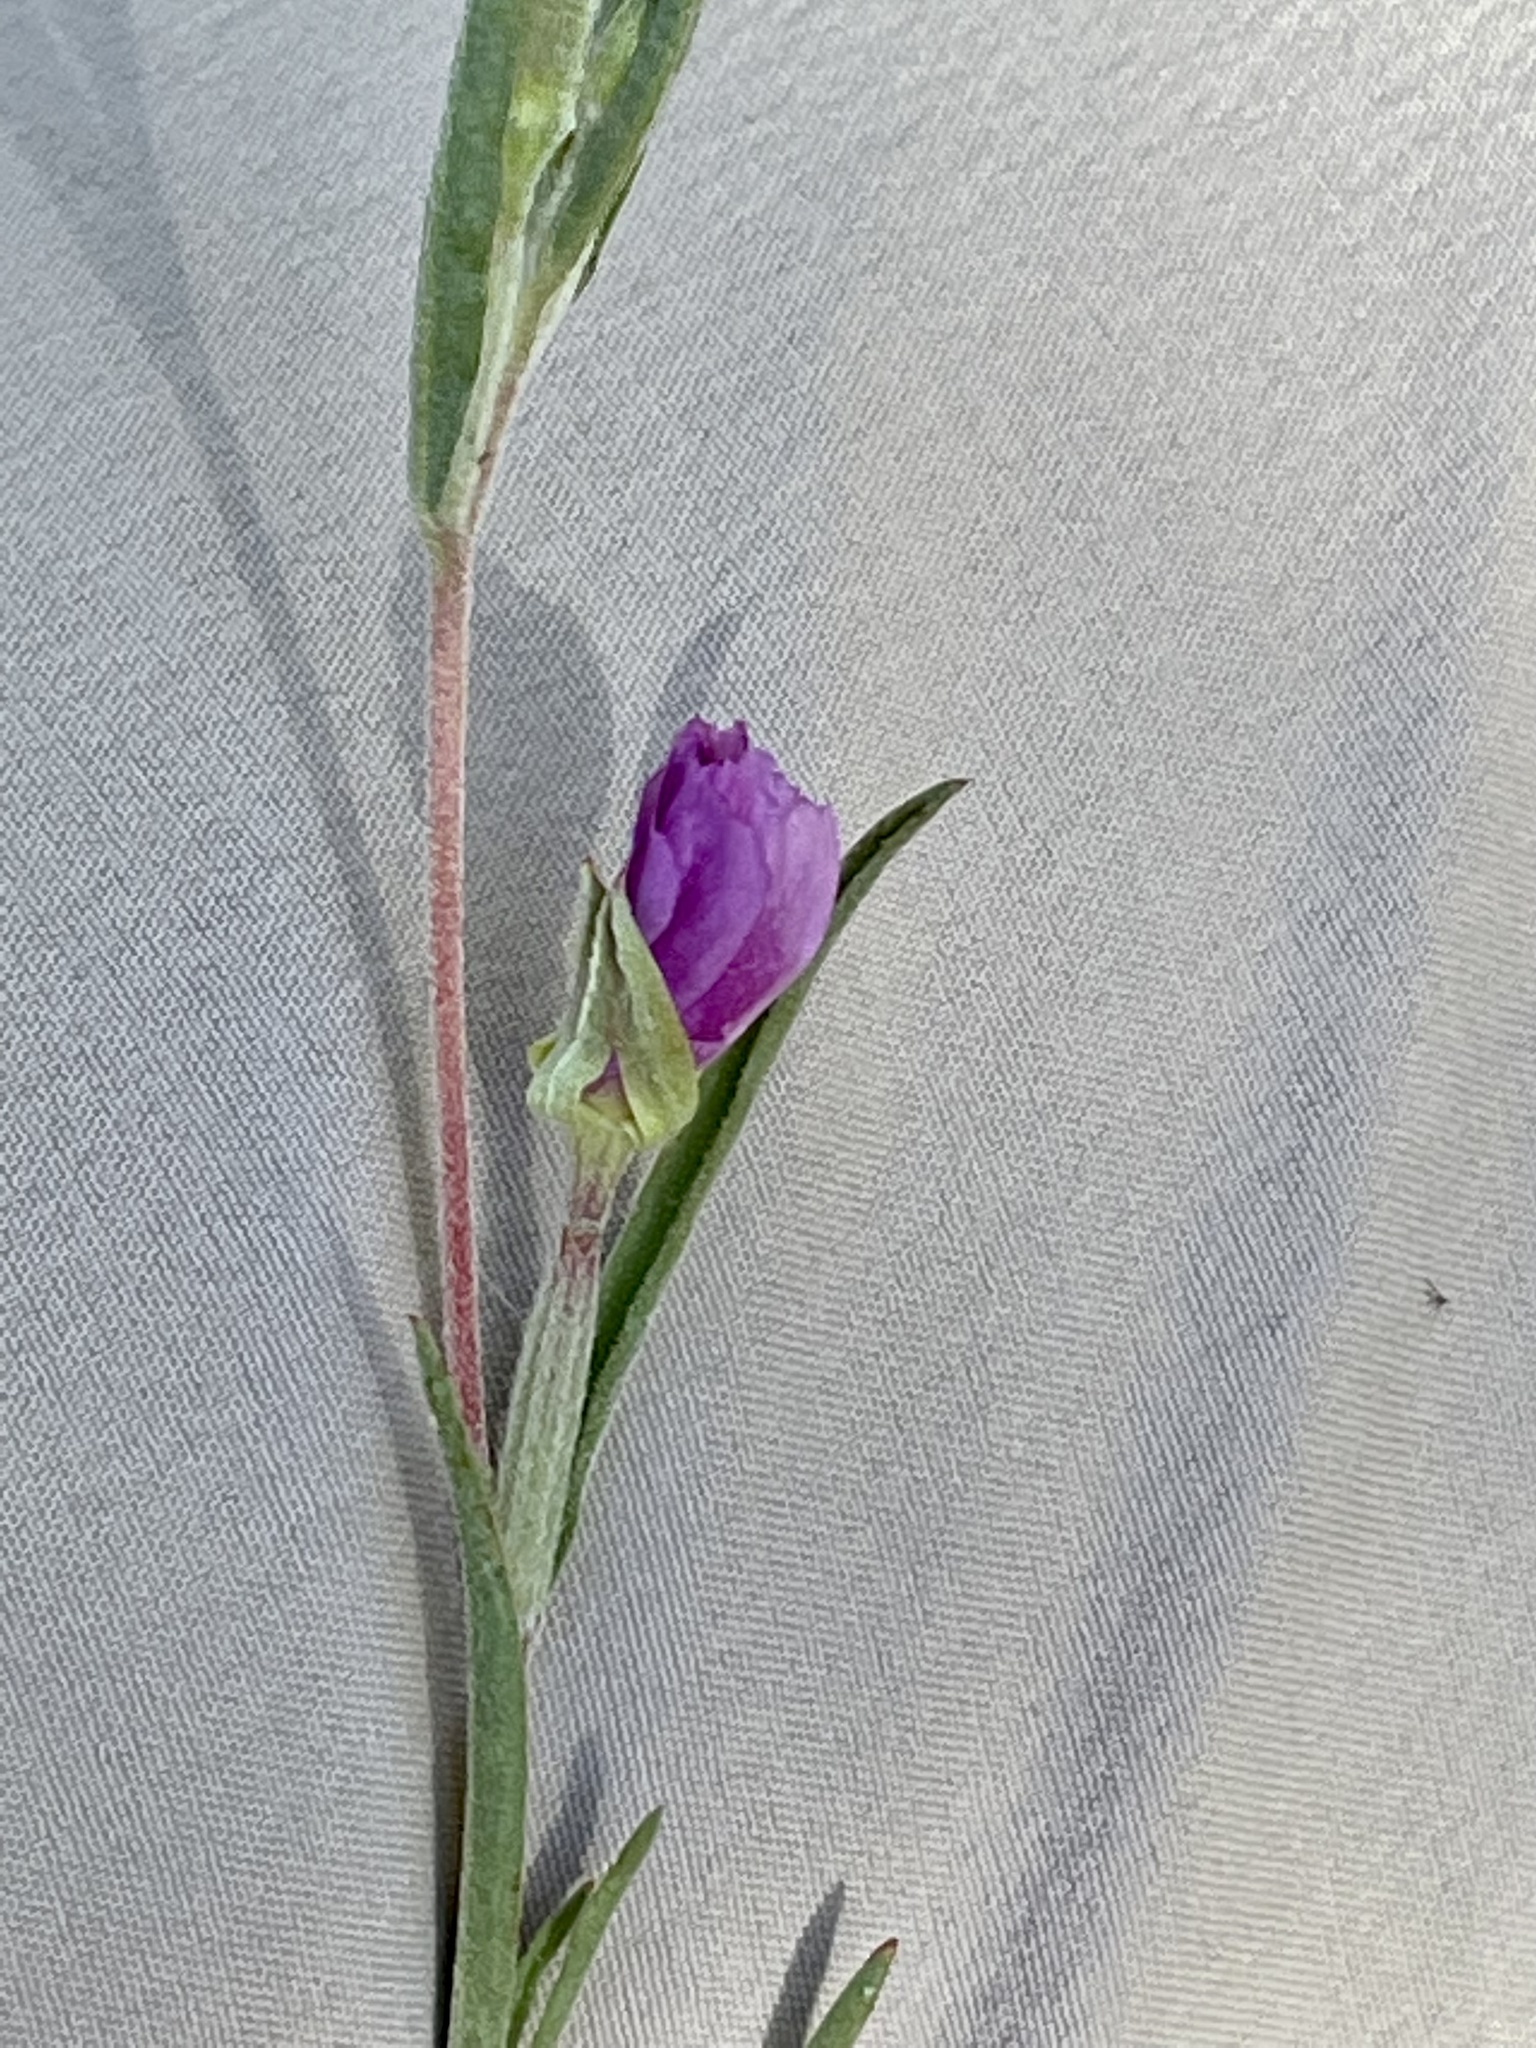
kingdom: Plantae
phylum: Tracheophyta
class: Magnoliopsida
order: Myrtales
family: Onagraceae
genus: Clarkia
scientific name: Clarkia purpurea
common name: Purple clarkia
